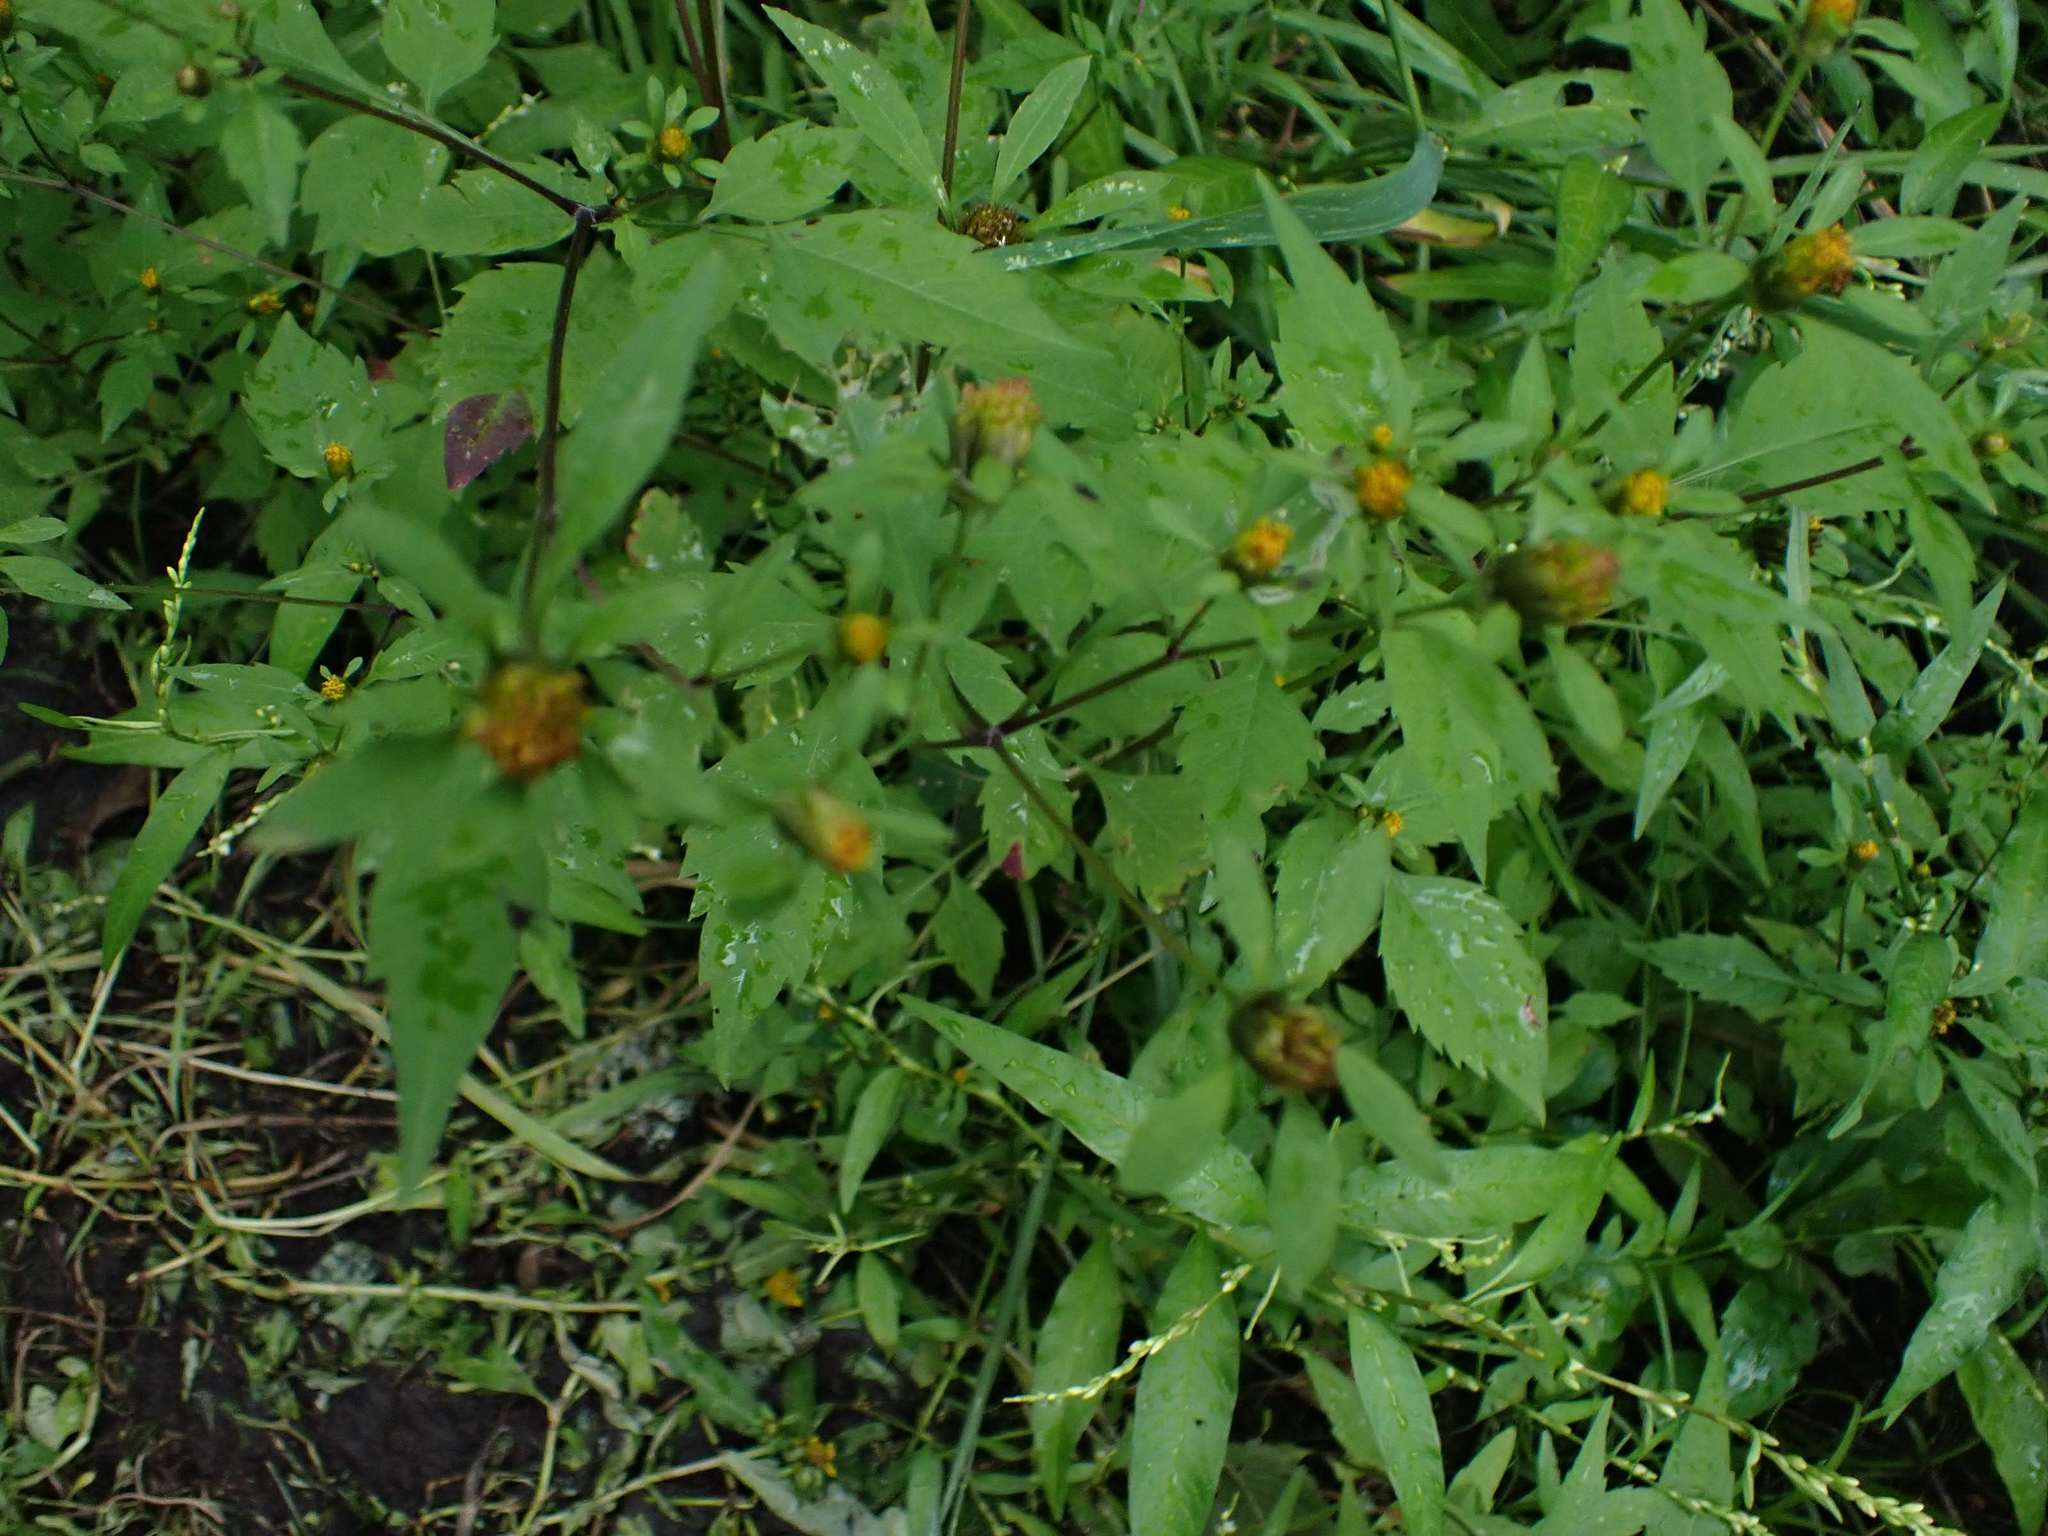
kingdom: Plantae
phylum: Tracheophyta
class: Magnoliopsida
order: Asterales
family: Asteraceae
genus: Bidens
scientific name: Bidens frondosa
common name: Beggarticks
